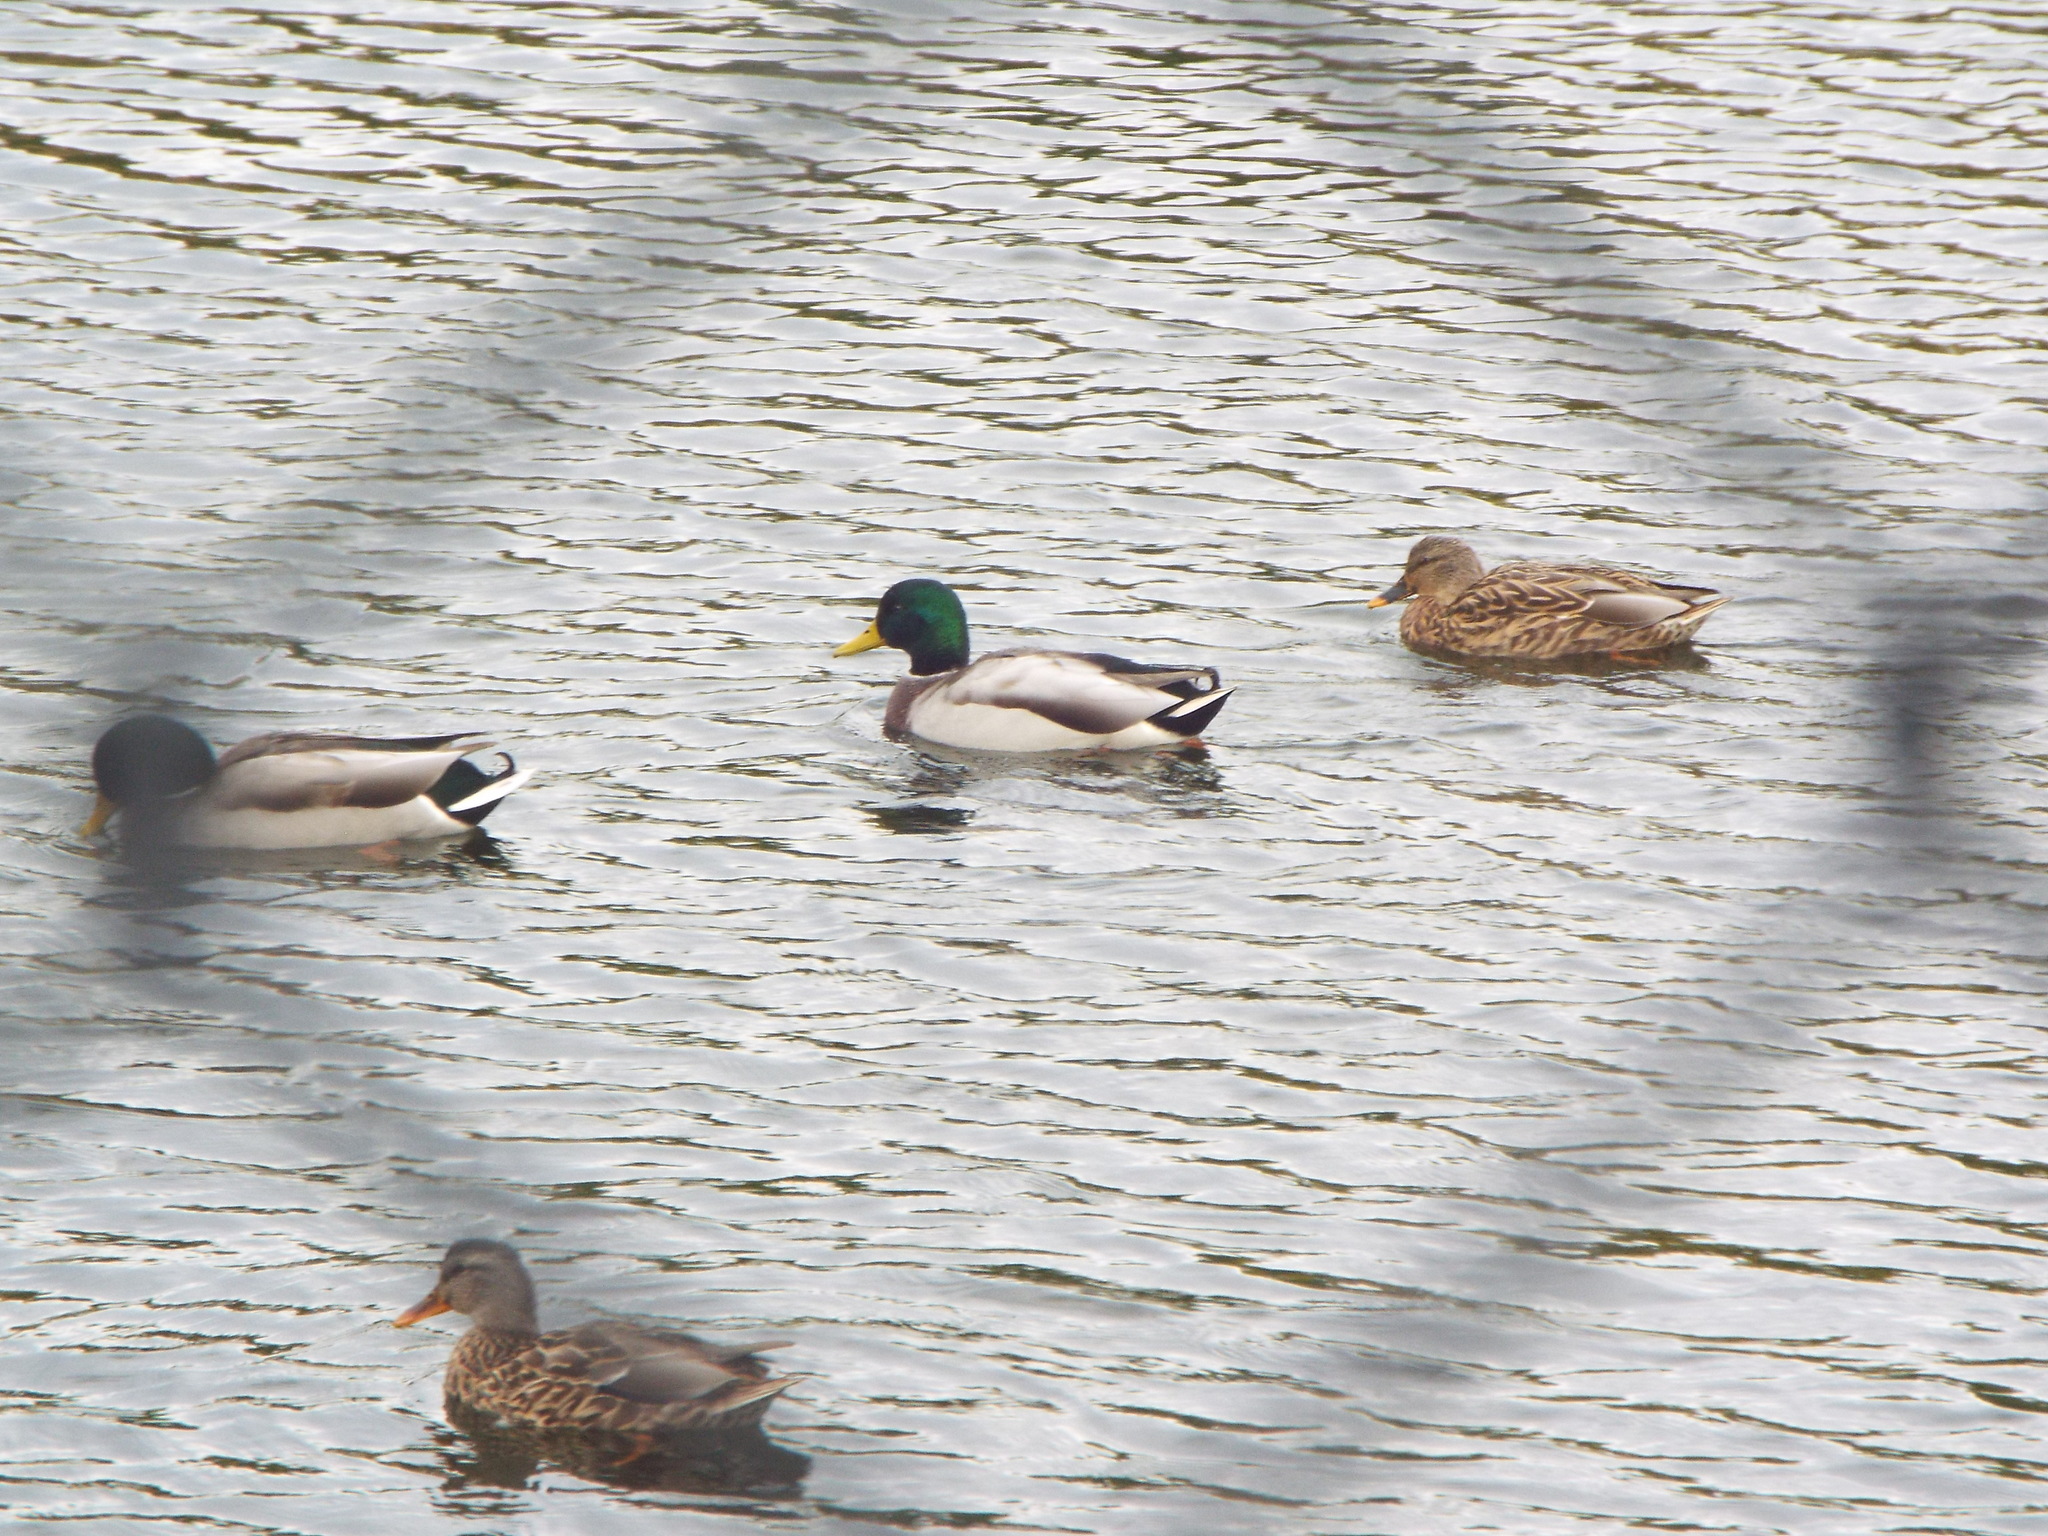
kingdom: Animalia
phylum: Chordata
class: Aves
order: Anseriformes
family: Anatidae
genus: Anas
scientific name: Anas platyrhynchos
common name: Mallard
